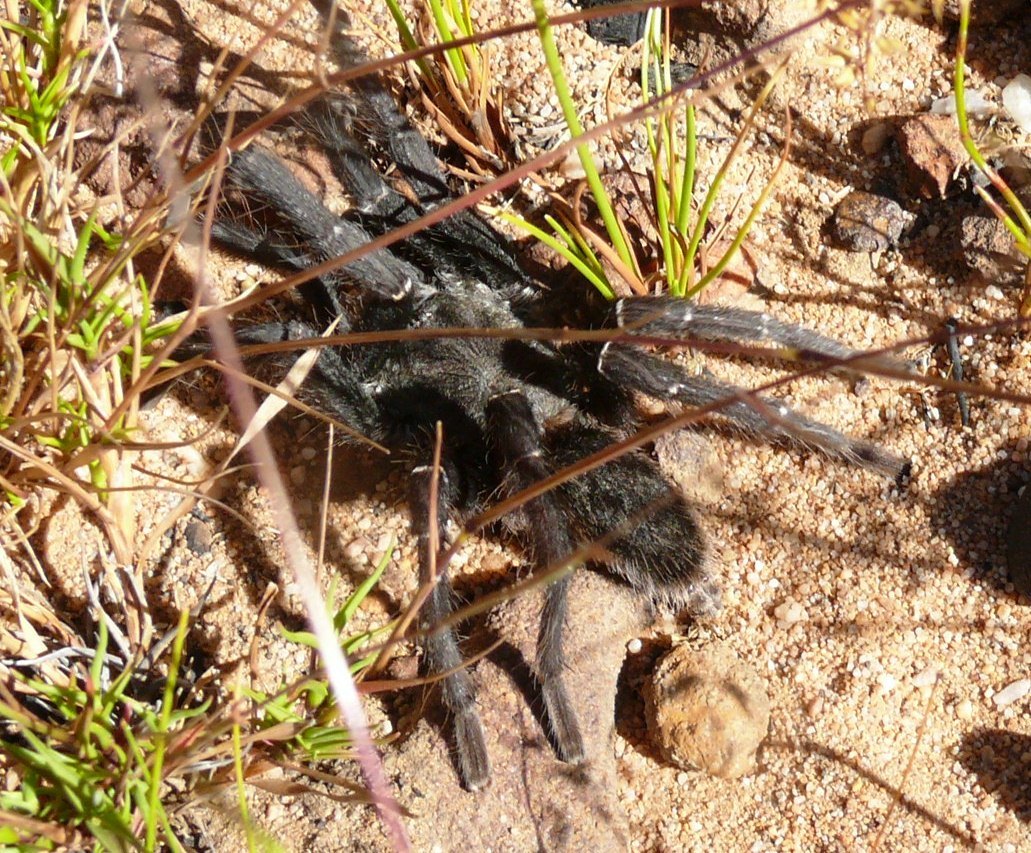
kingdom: Animalia
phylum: Arthropoda
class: Arachnida
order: Araneae
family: Theraphosidae
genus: Harpactira
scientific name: Harpactira marksi
